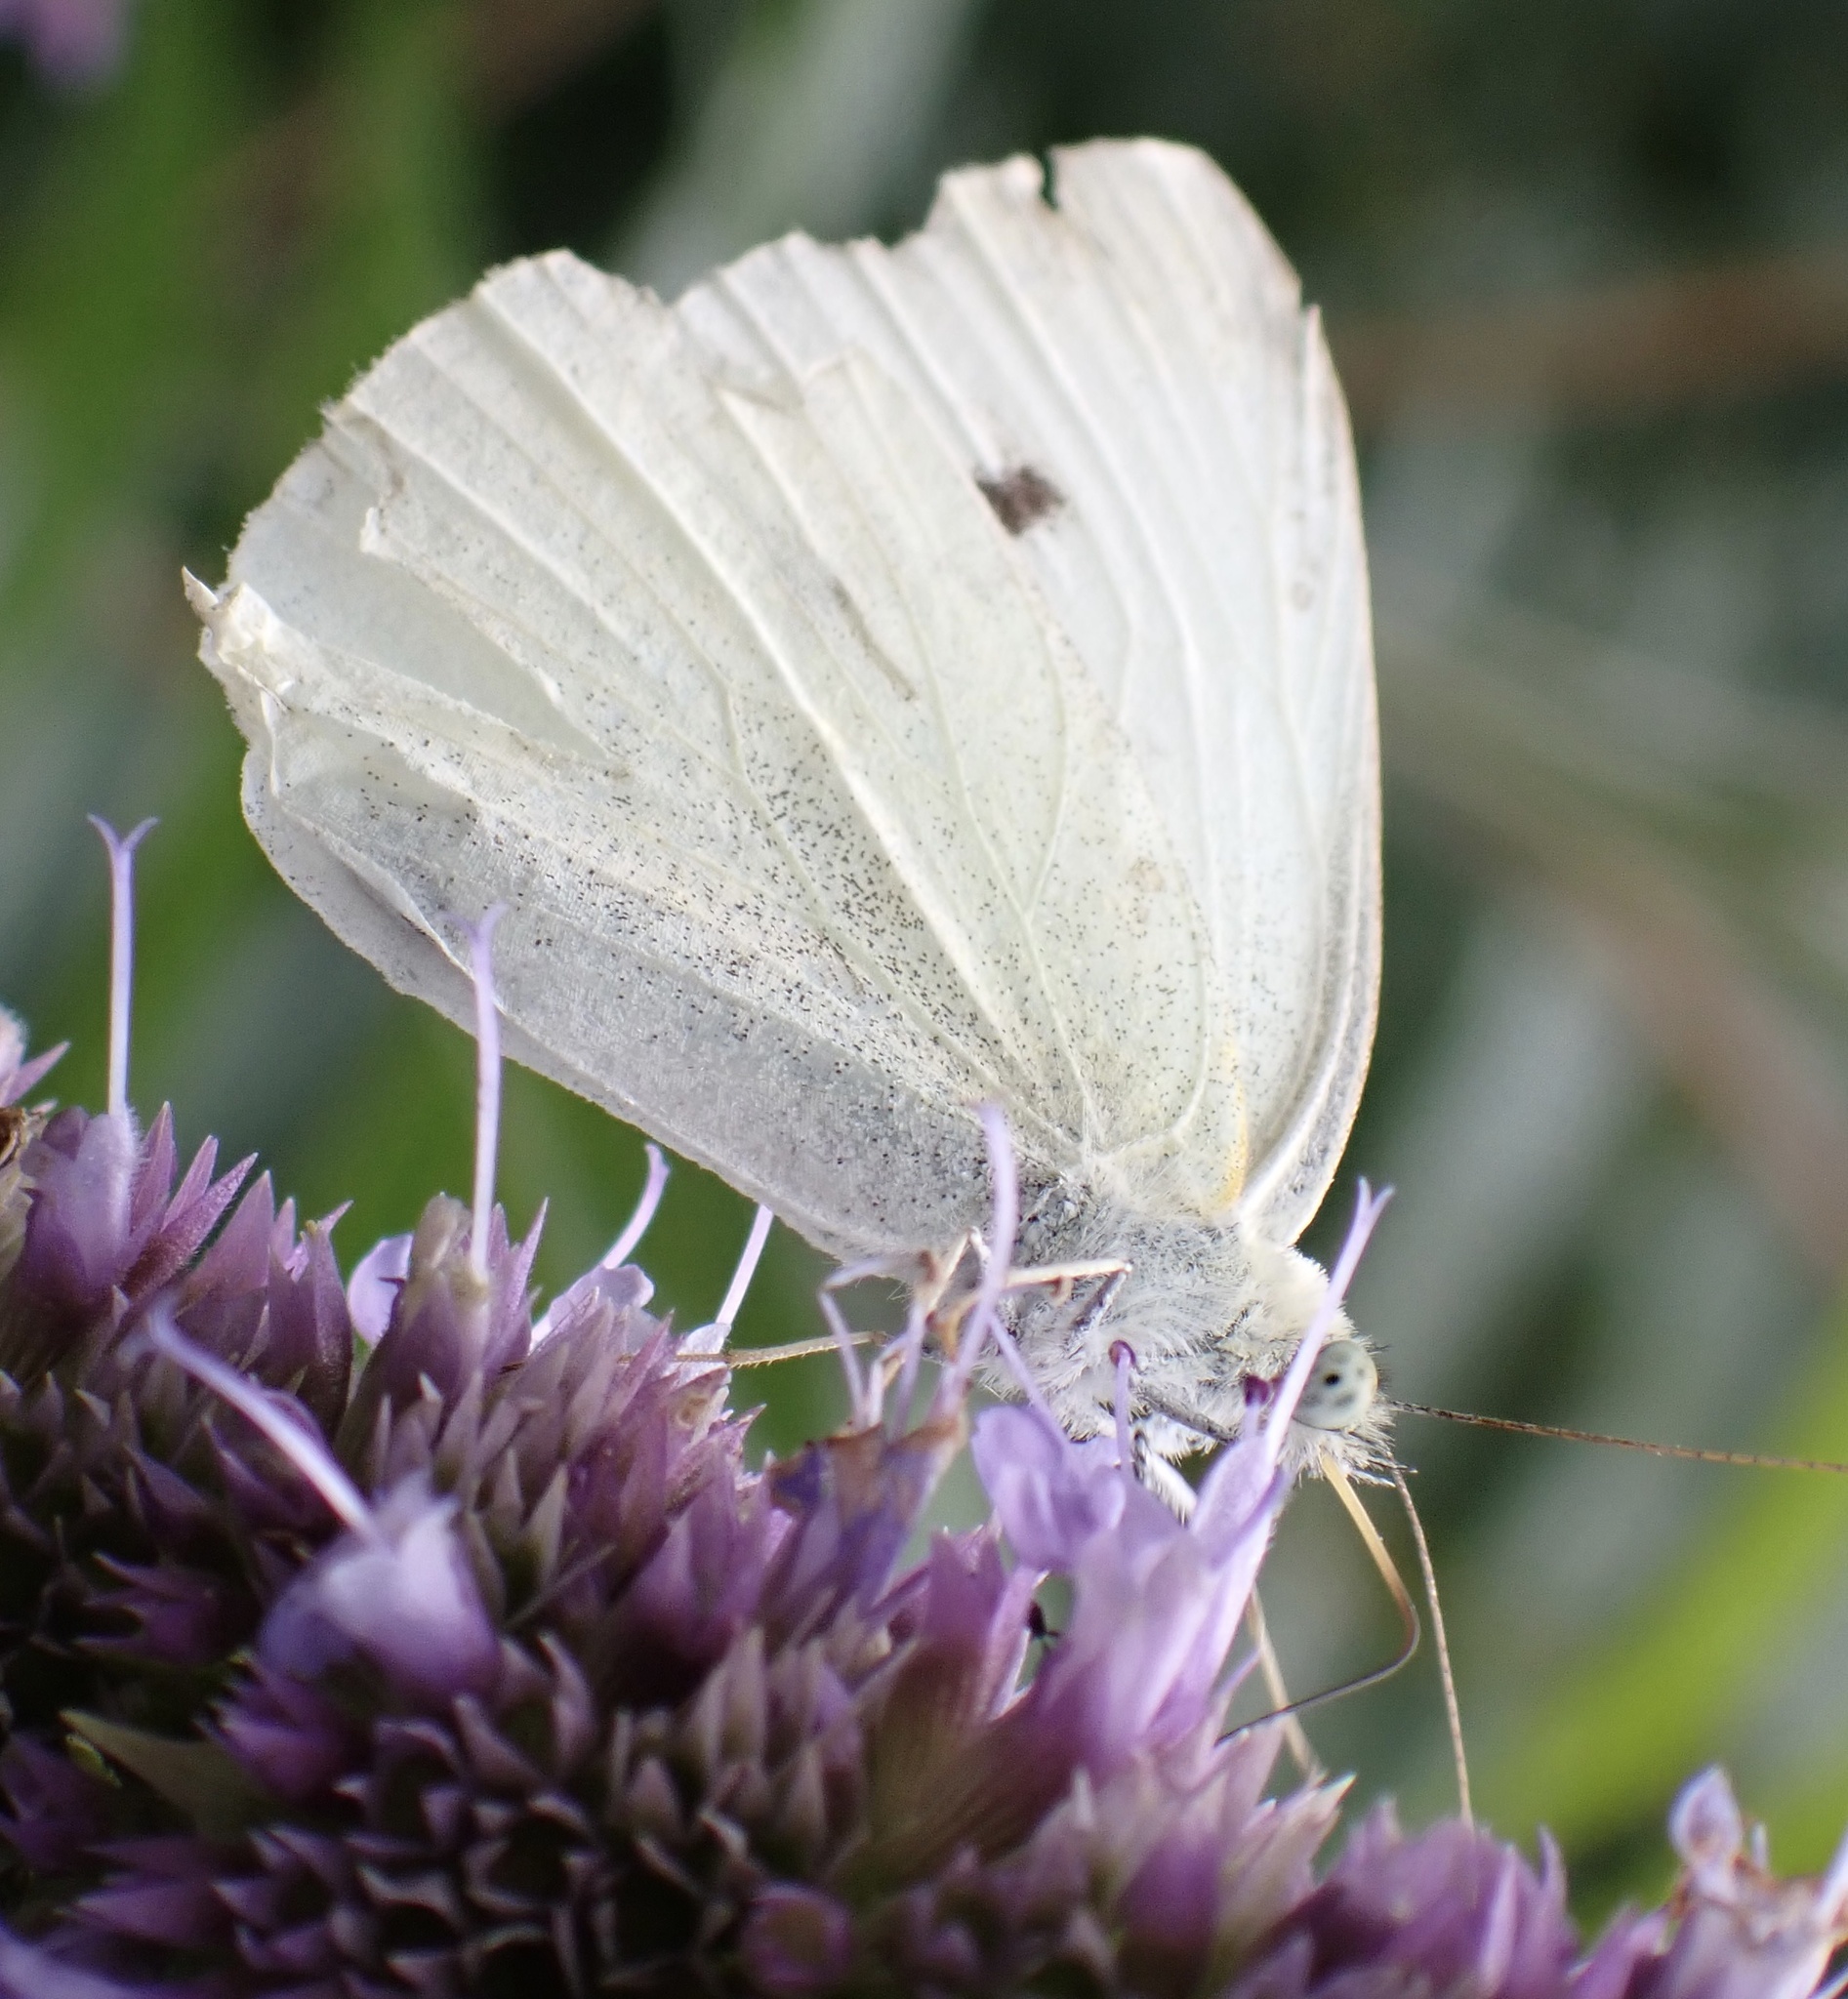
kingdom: Animalia
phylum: Arthropoda
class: Insecta
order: Lepidoptera
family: Pieridae
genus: Pieris
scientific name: Pieris rapae
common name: Small white
